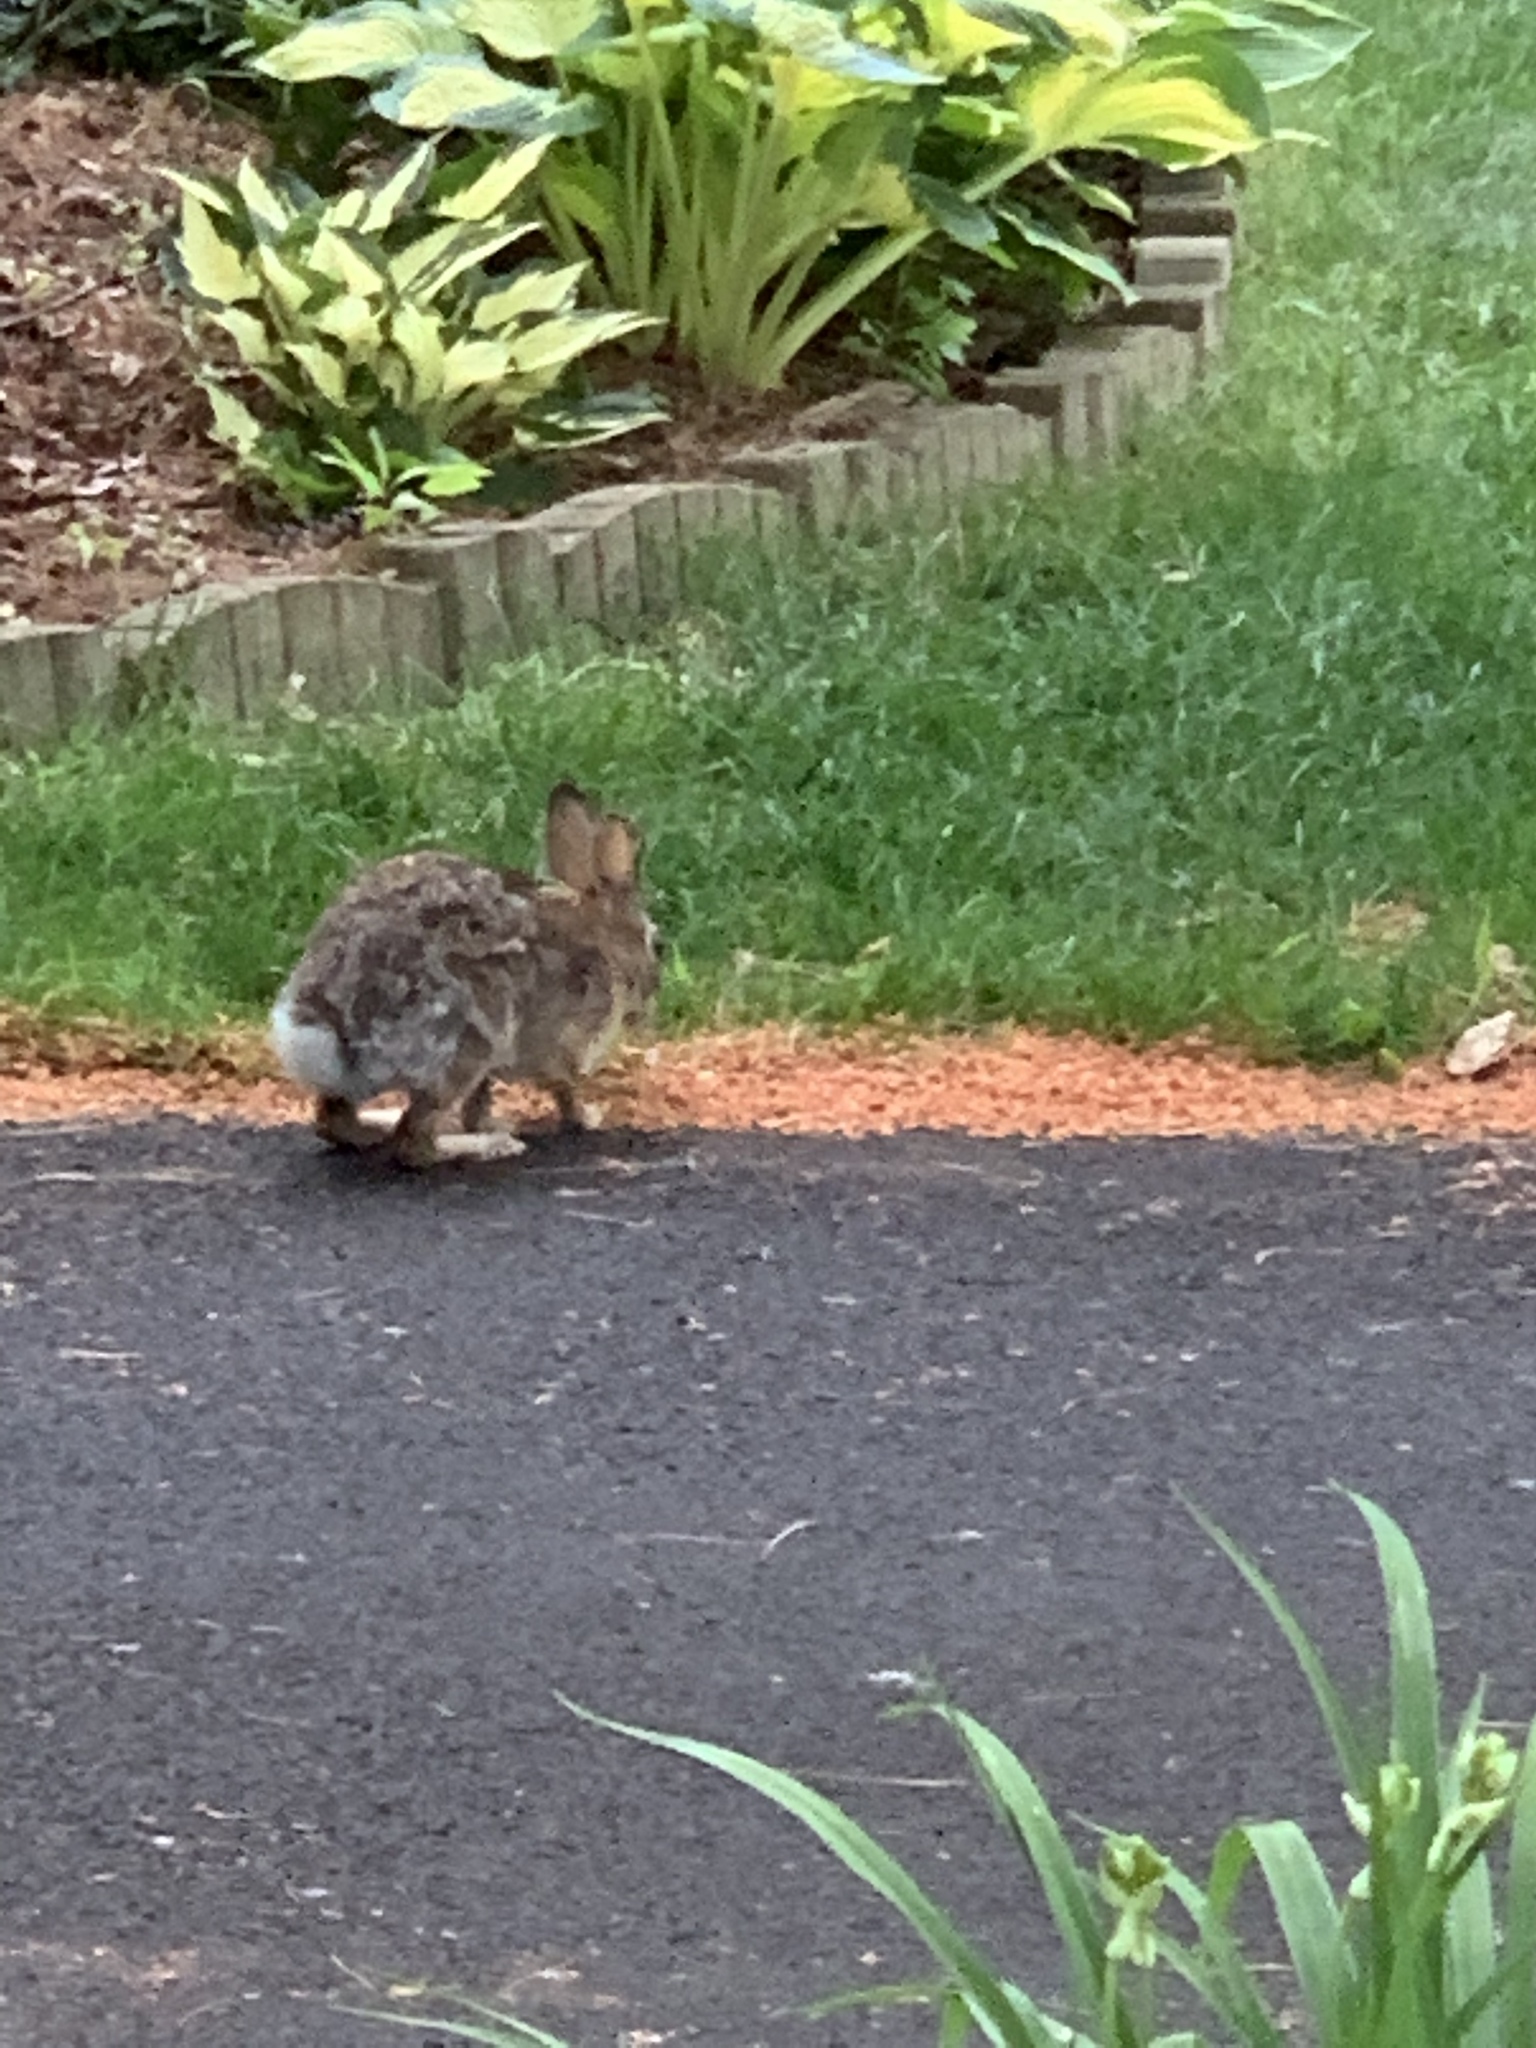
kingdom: Animalia
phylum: Chordata
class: Mammalia
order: Lagomorpha
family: Leporidae
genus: Sylvilagus
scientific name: Sylvilagus floridanus
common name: Eastern cottontail
